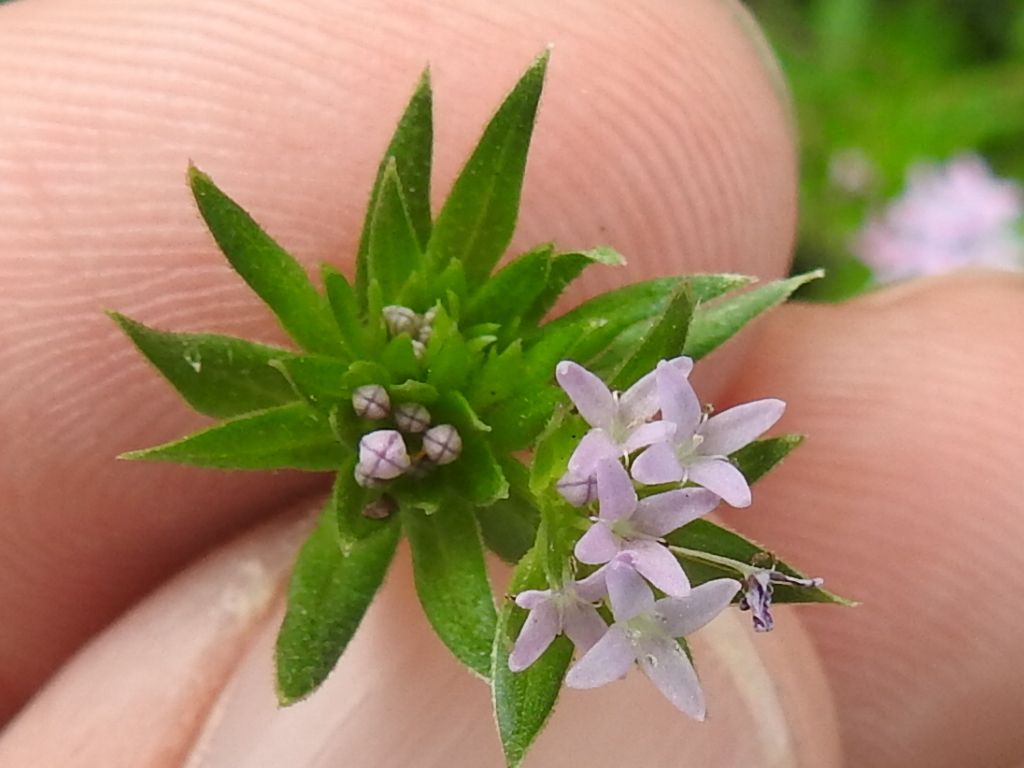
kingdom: Plantae
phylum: Tracheophyta
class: Magnoliopsida
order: Gentianales
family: Rubiaceae
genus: Sherardia
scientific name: Sherardia arvensis
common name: Field madder
